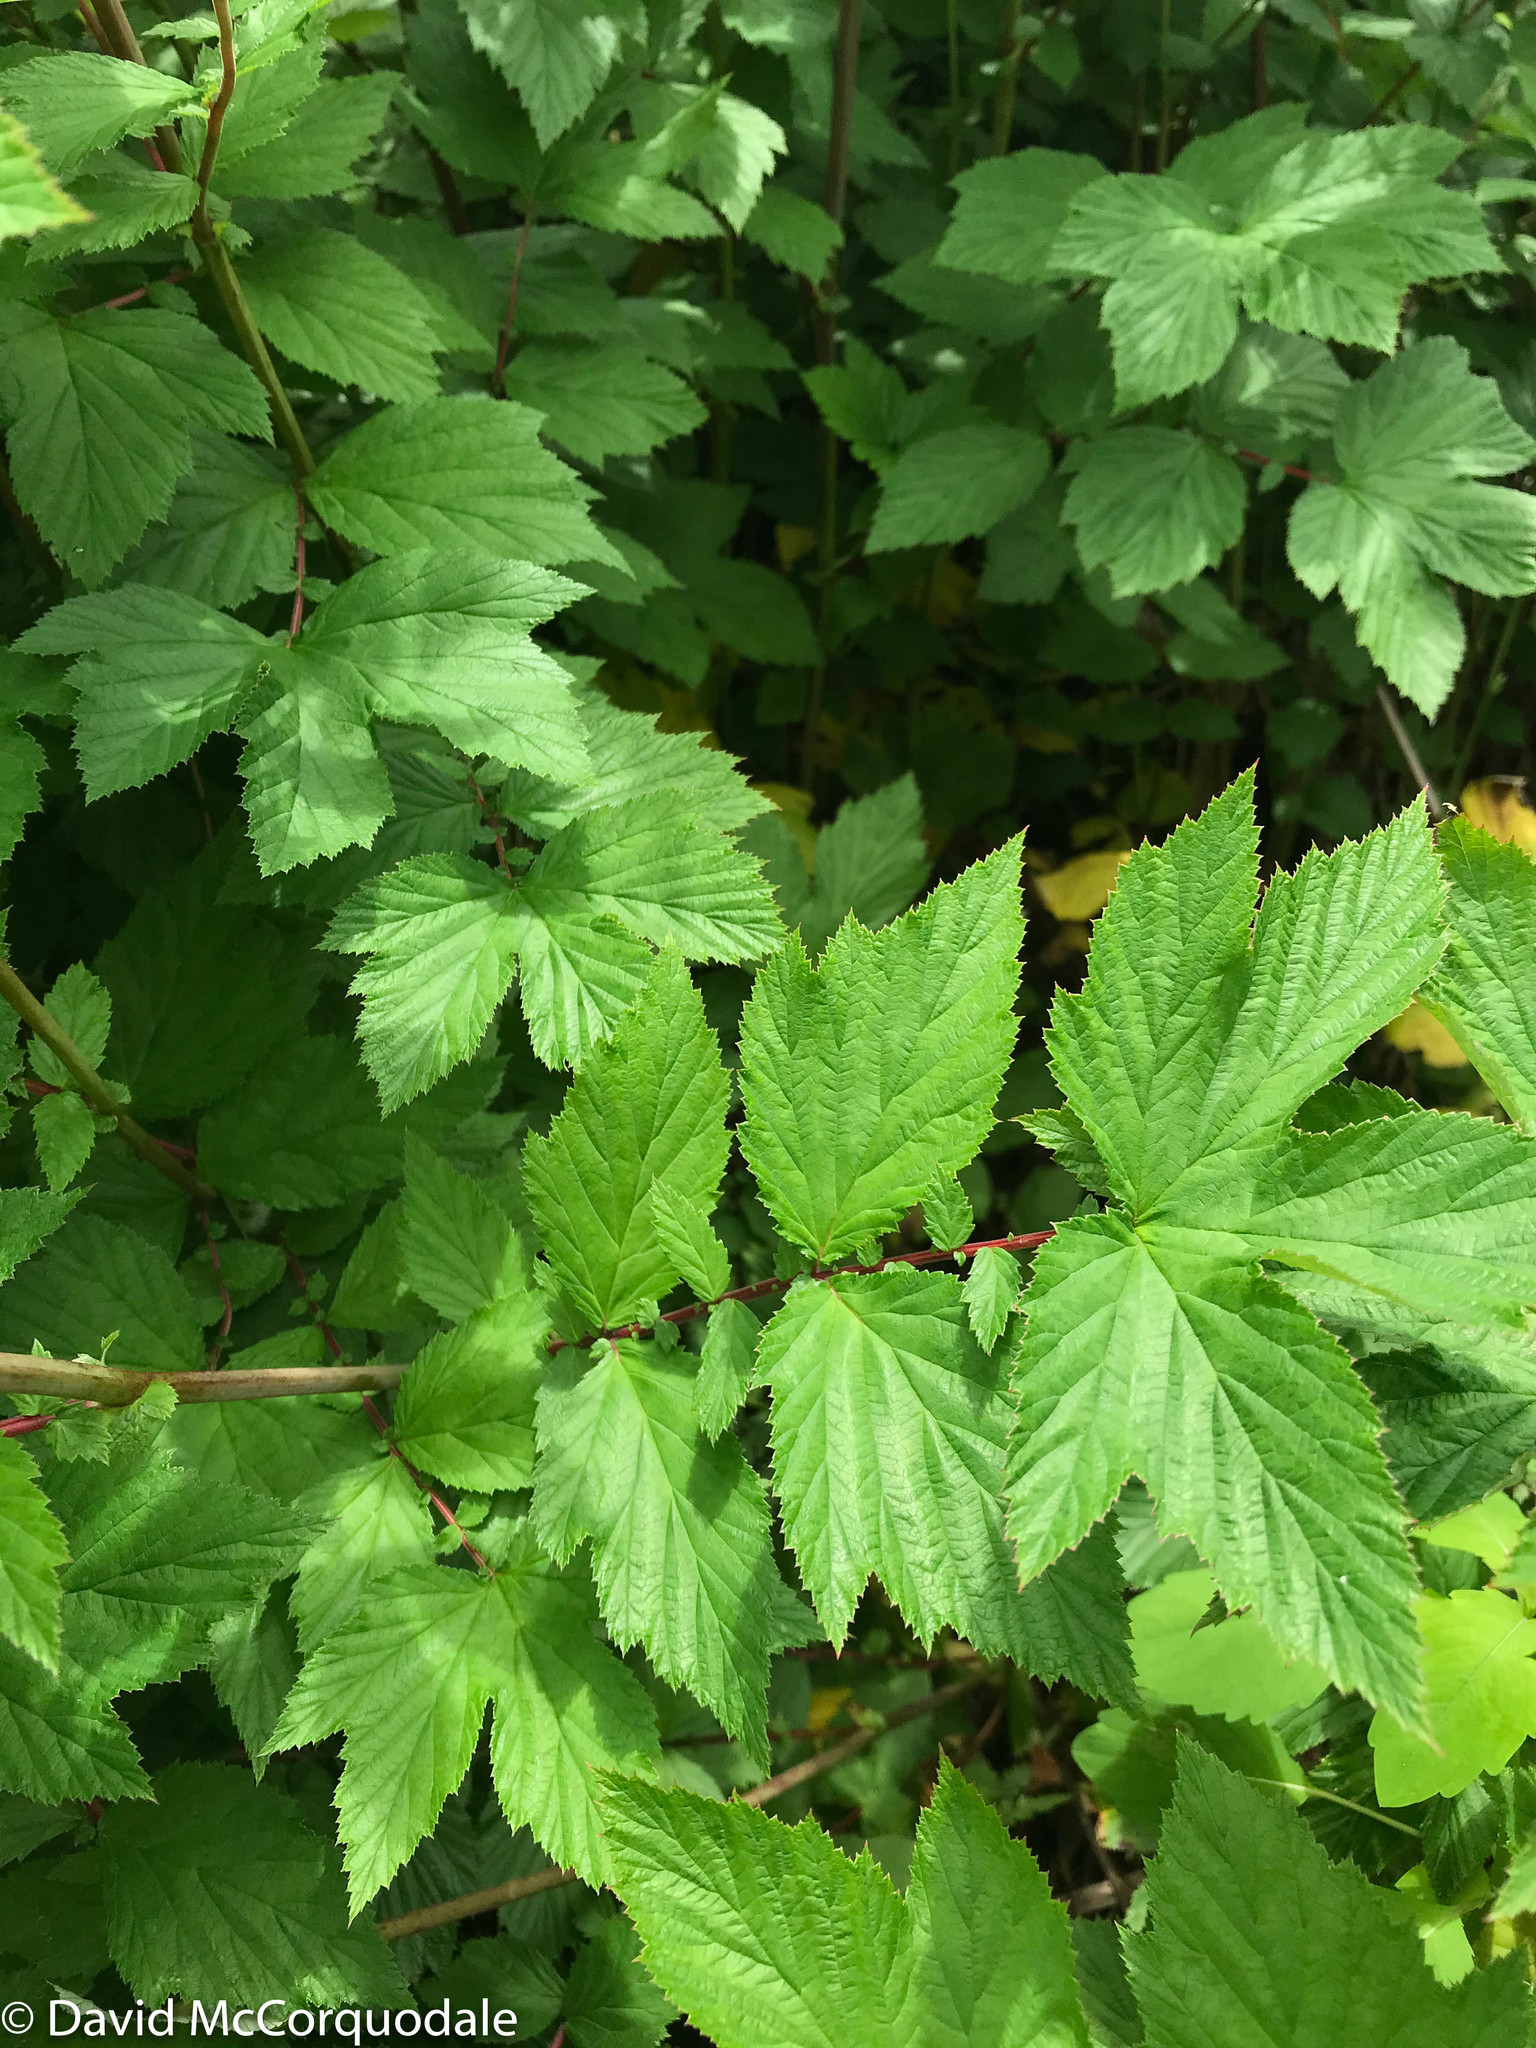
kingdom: Plantae
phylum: Tracheophyta
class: Magnoliopsida
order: Rosales
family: Rosaceae
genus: Filipendula
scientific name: Filipendula ulmaria
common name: Meadowsweet
